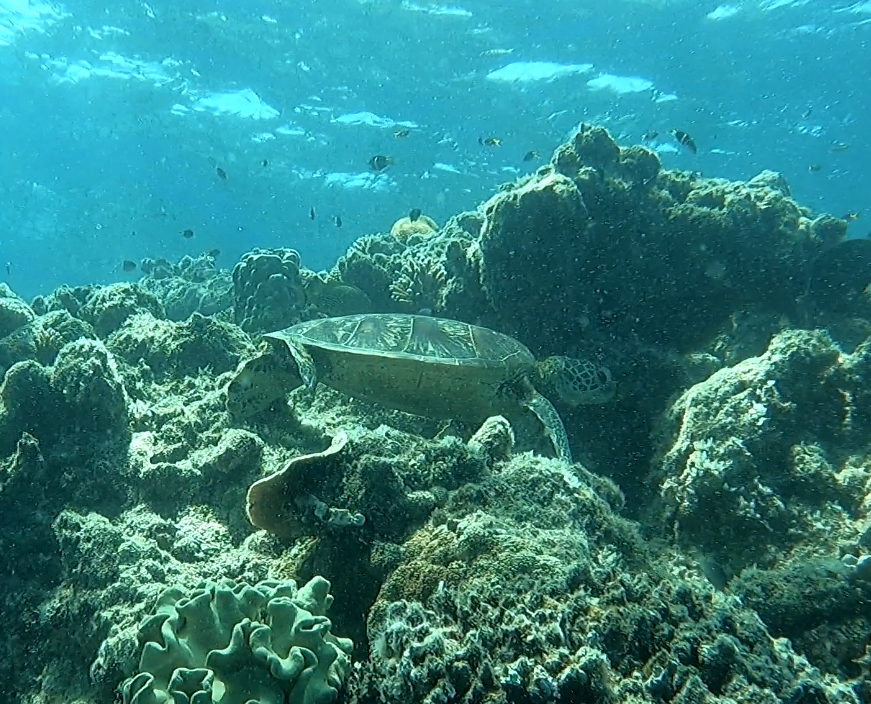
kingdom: Animalia
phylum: Chordata
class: Testudines
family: Cheloniidae
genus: Chelonia
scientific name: Chelonia mydas
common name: Green turtle
